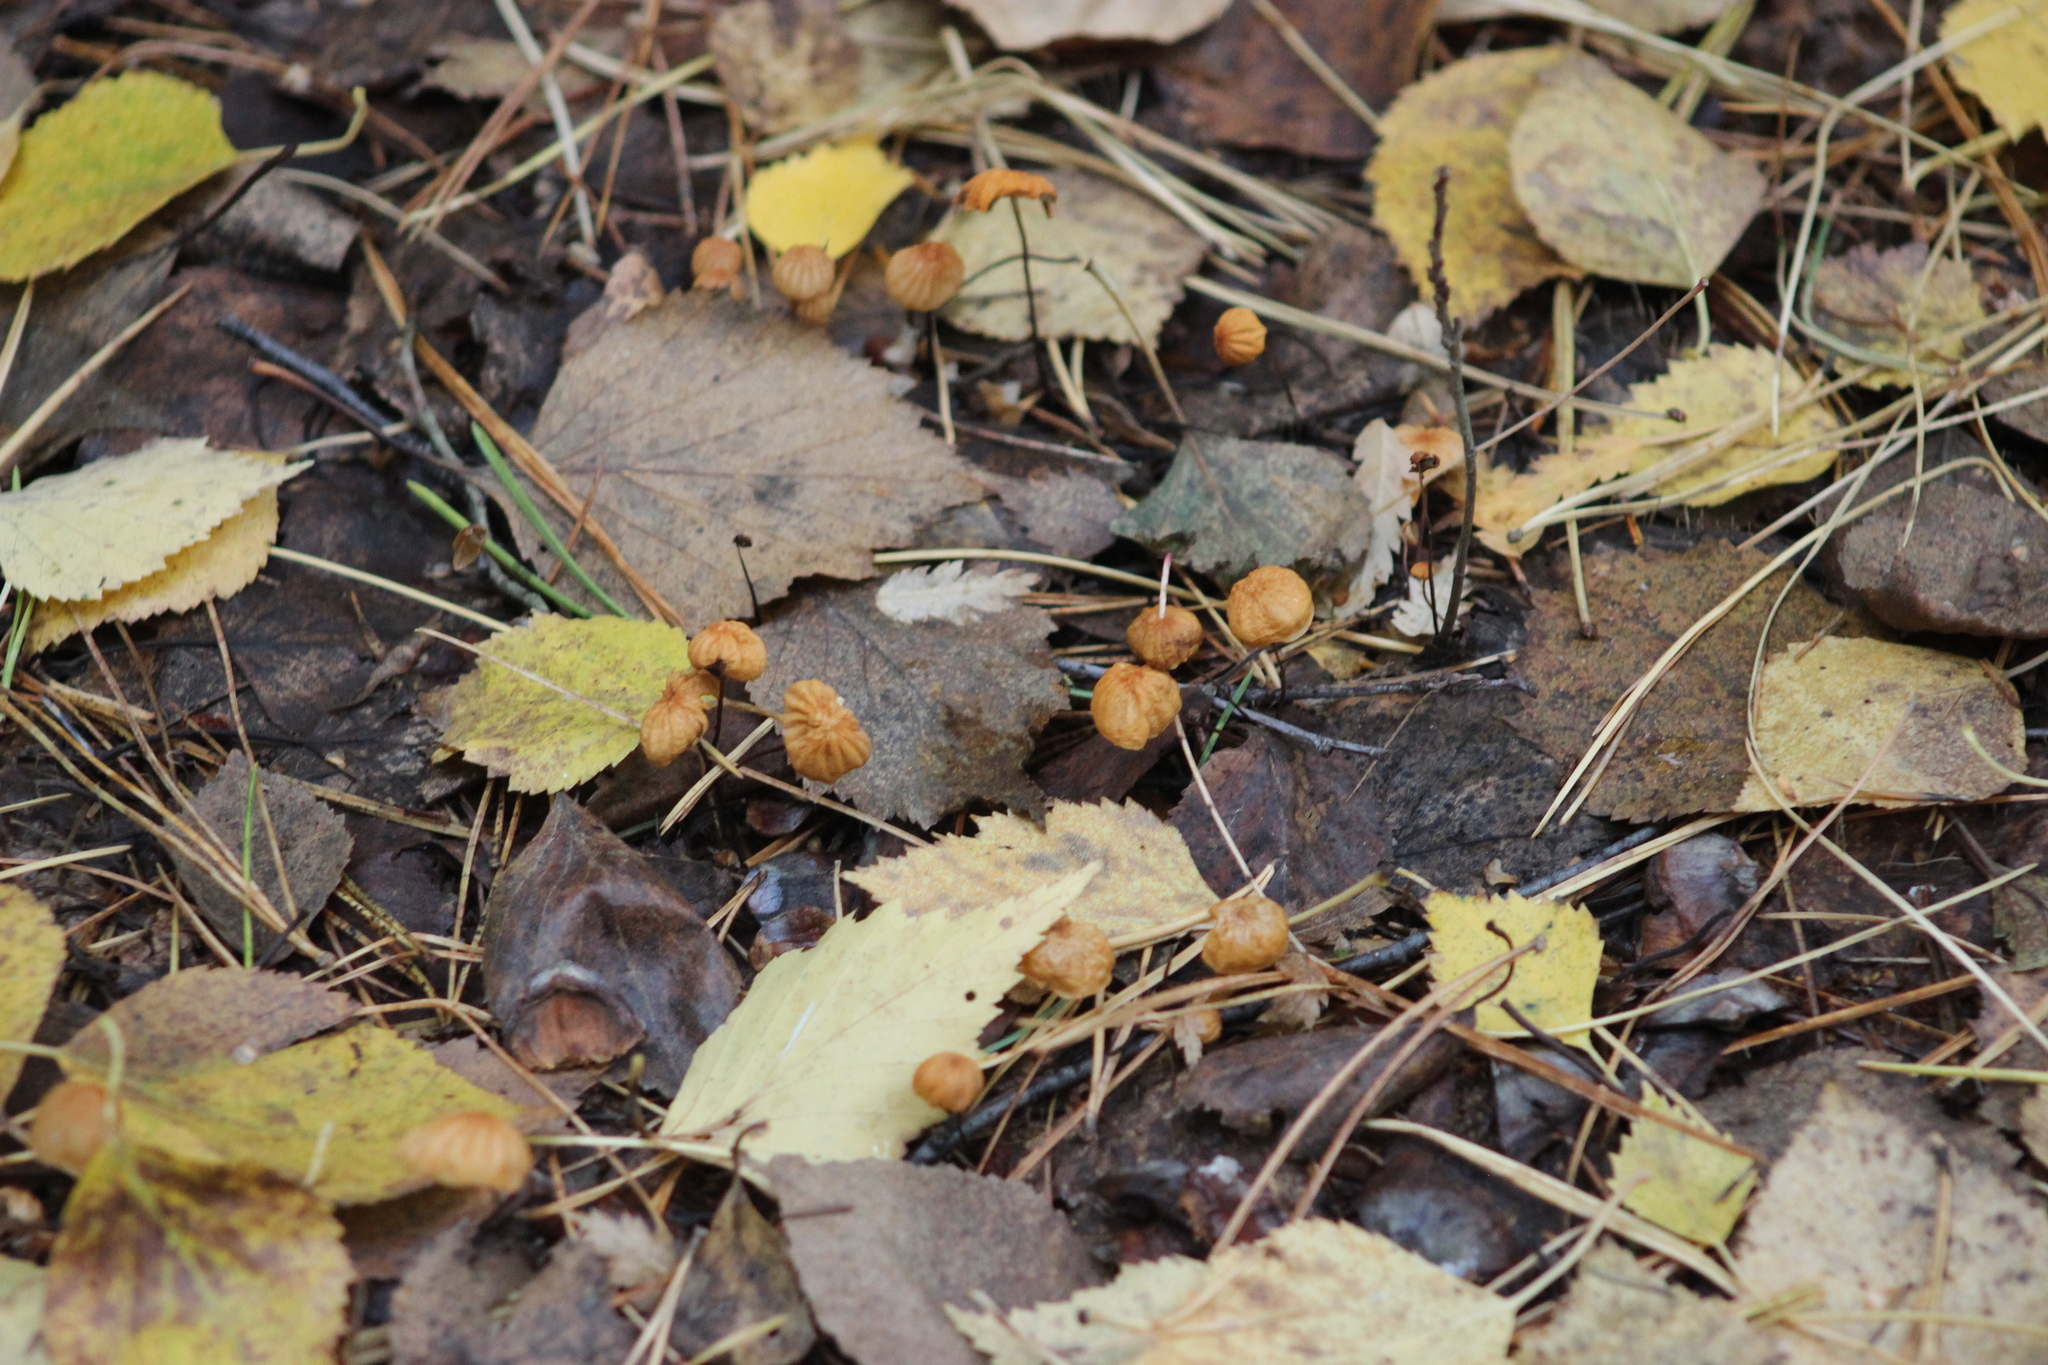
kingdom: Fungi
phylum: Basidiomycota
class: Agaricomycetes
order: Agaricales
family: Marasmiaceae
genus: Marasmius
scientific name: Marasmius siccus
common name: Orange pinwheel
